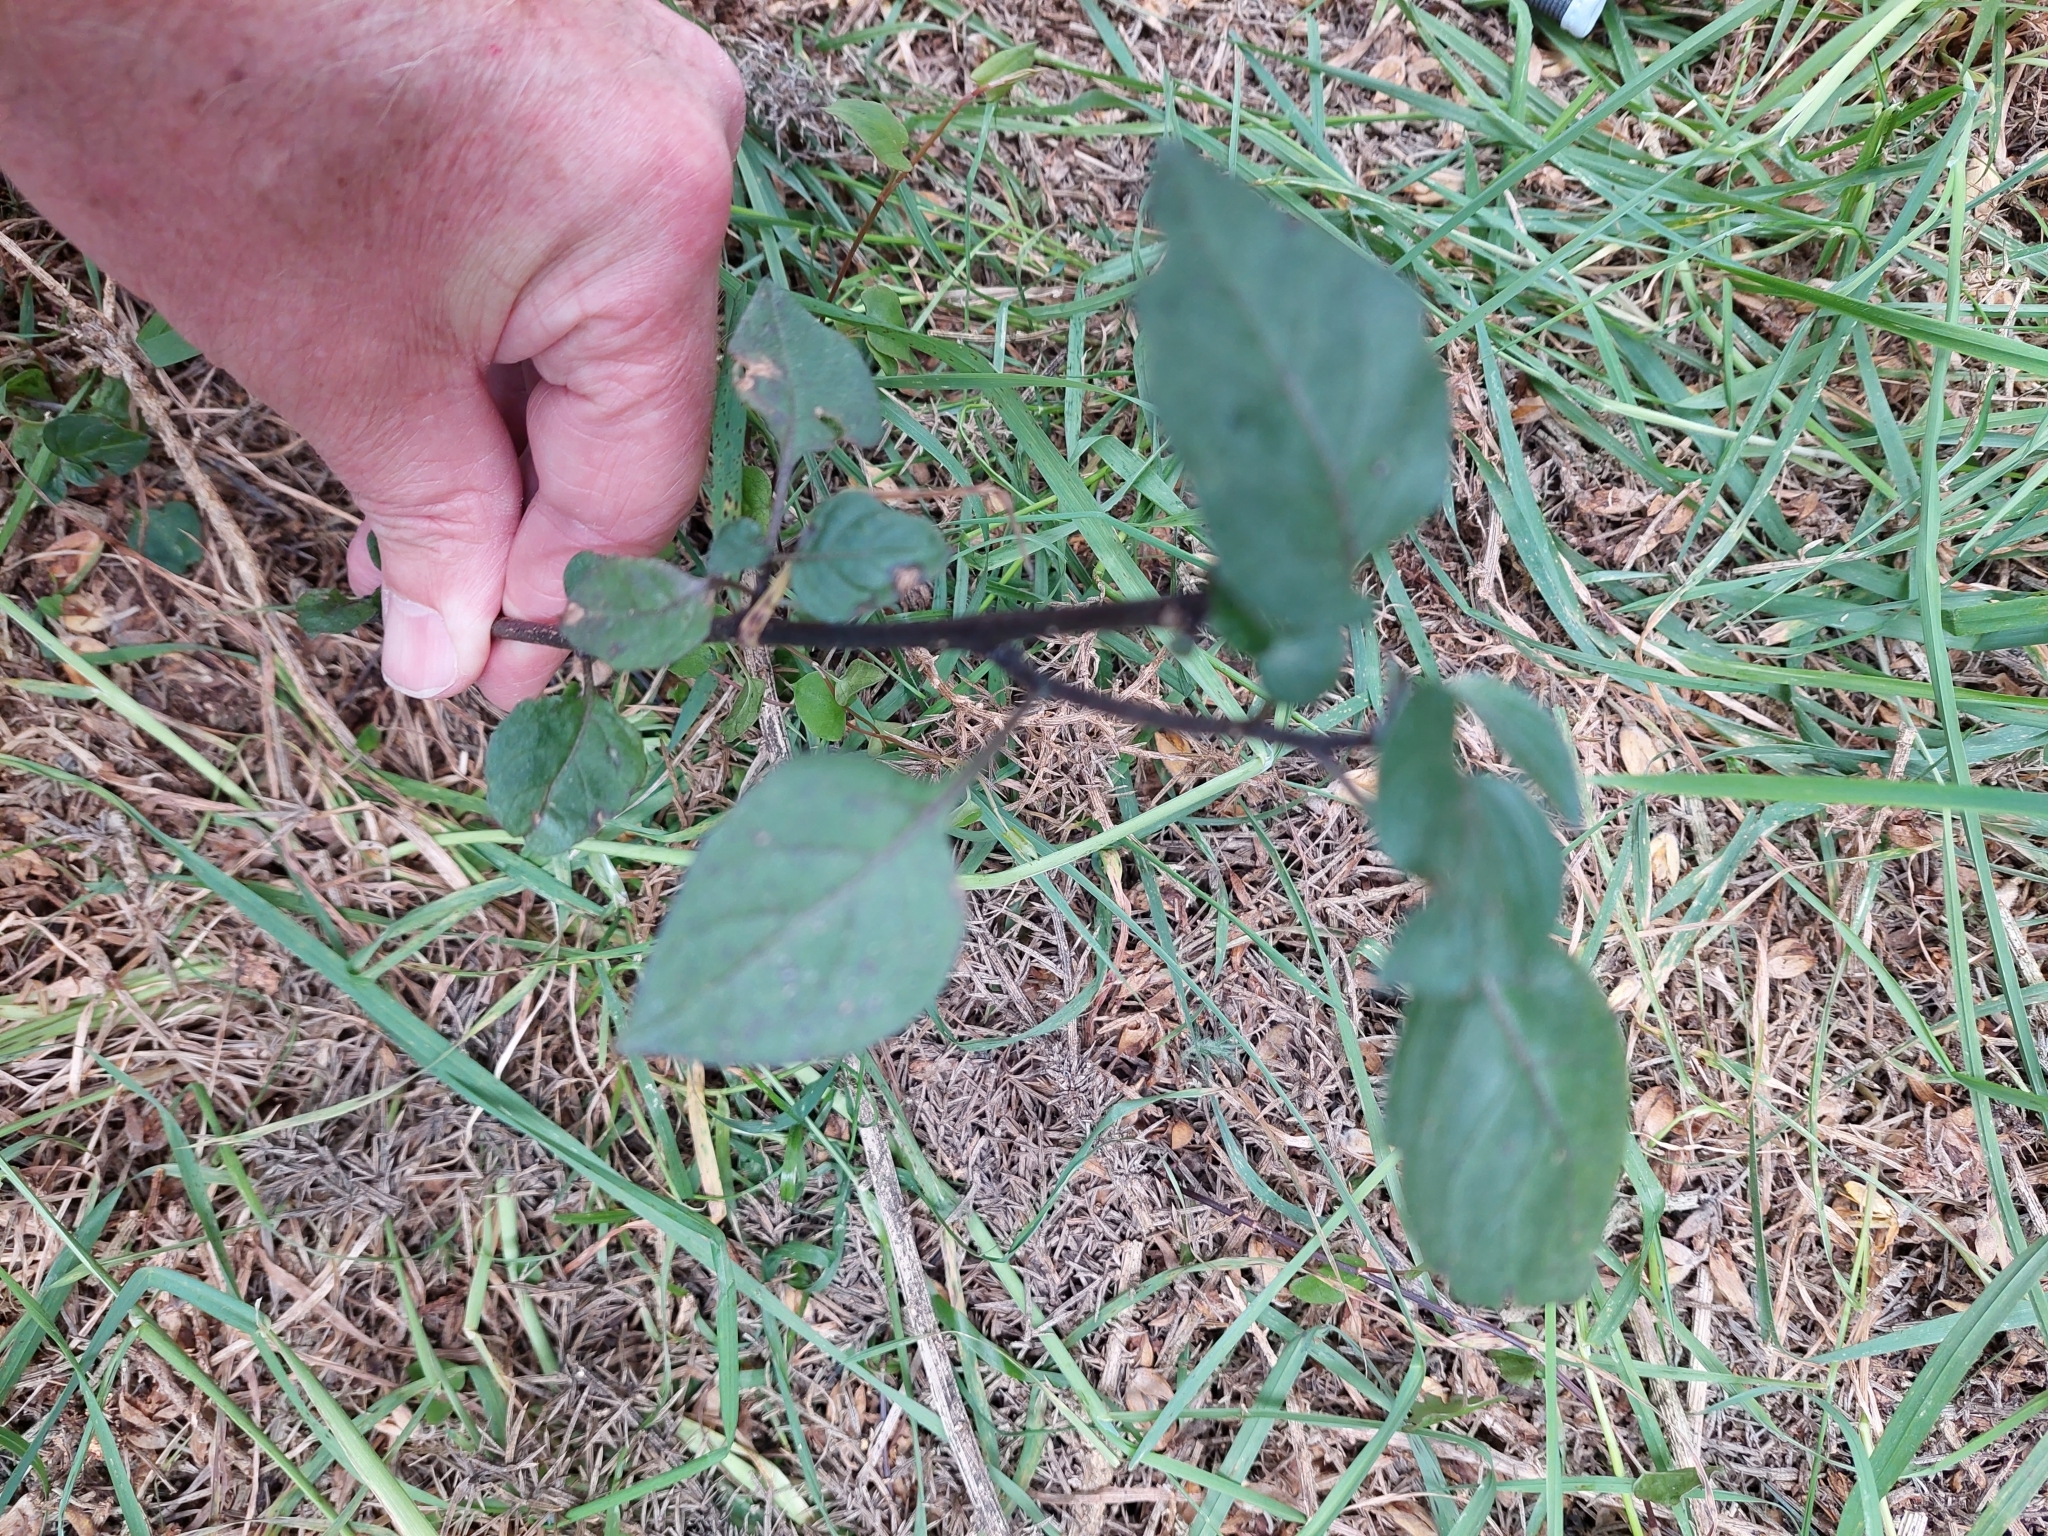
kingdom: Plantae
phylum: Tracheophyta
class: Magnoliopsida
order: Solanales
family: Solanaceae
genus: Solanum
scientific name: Solanum nigrum
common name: Black nightshade
